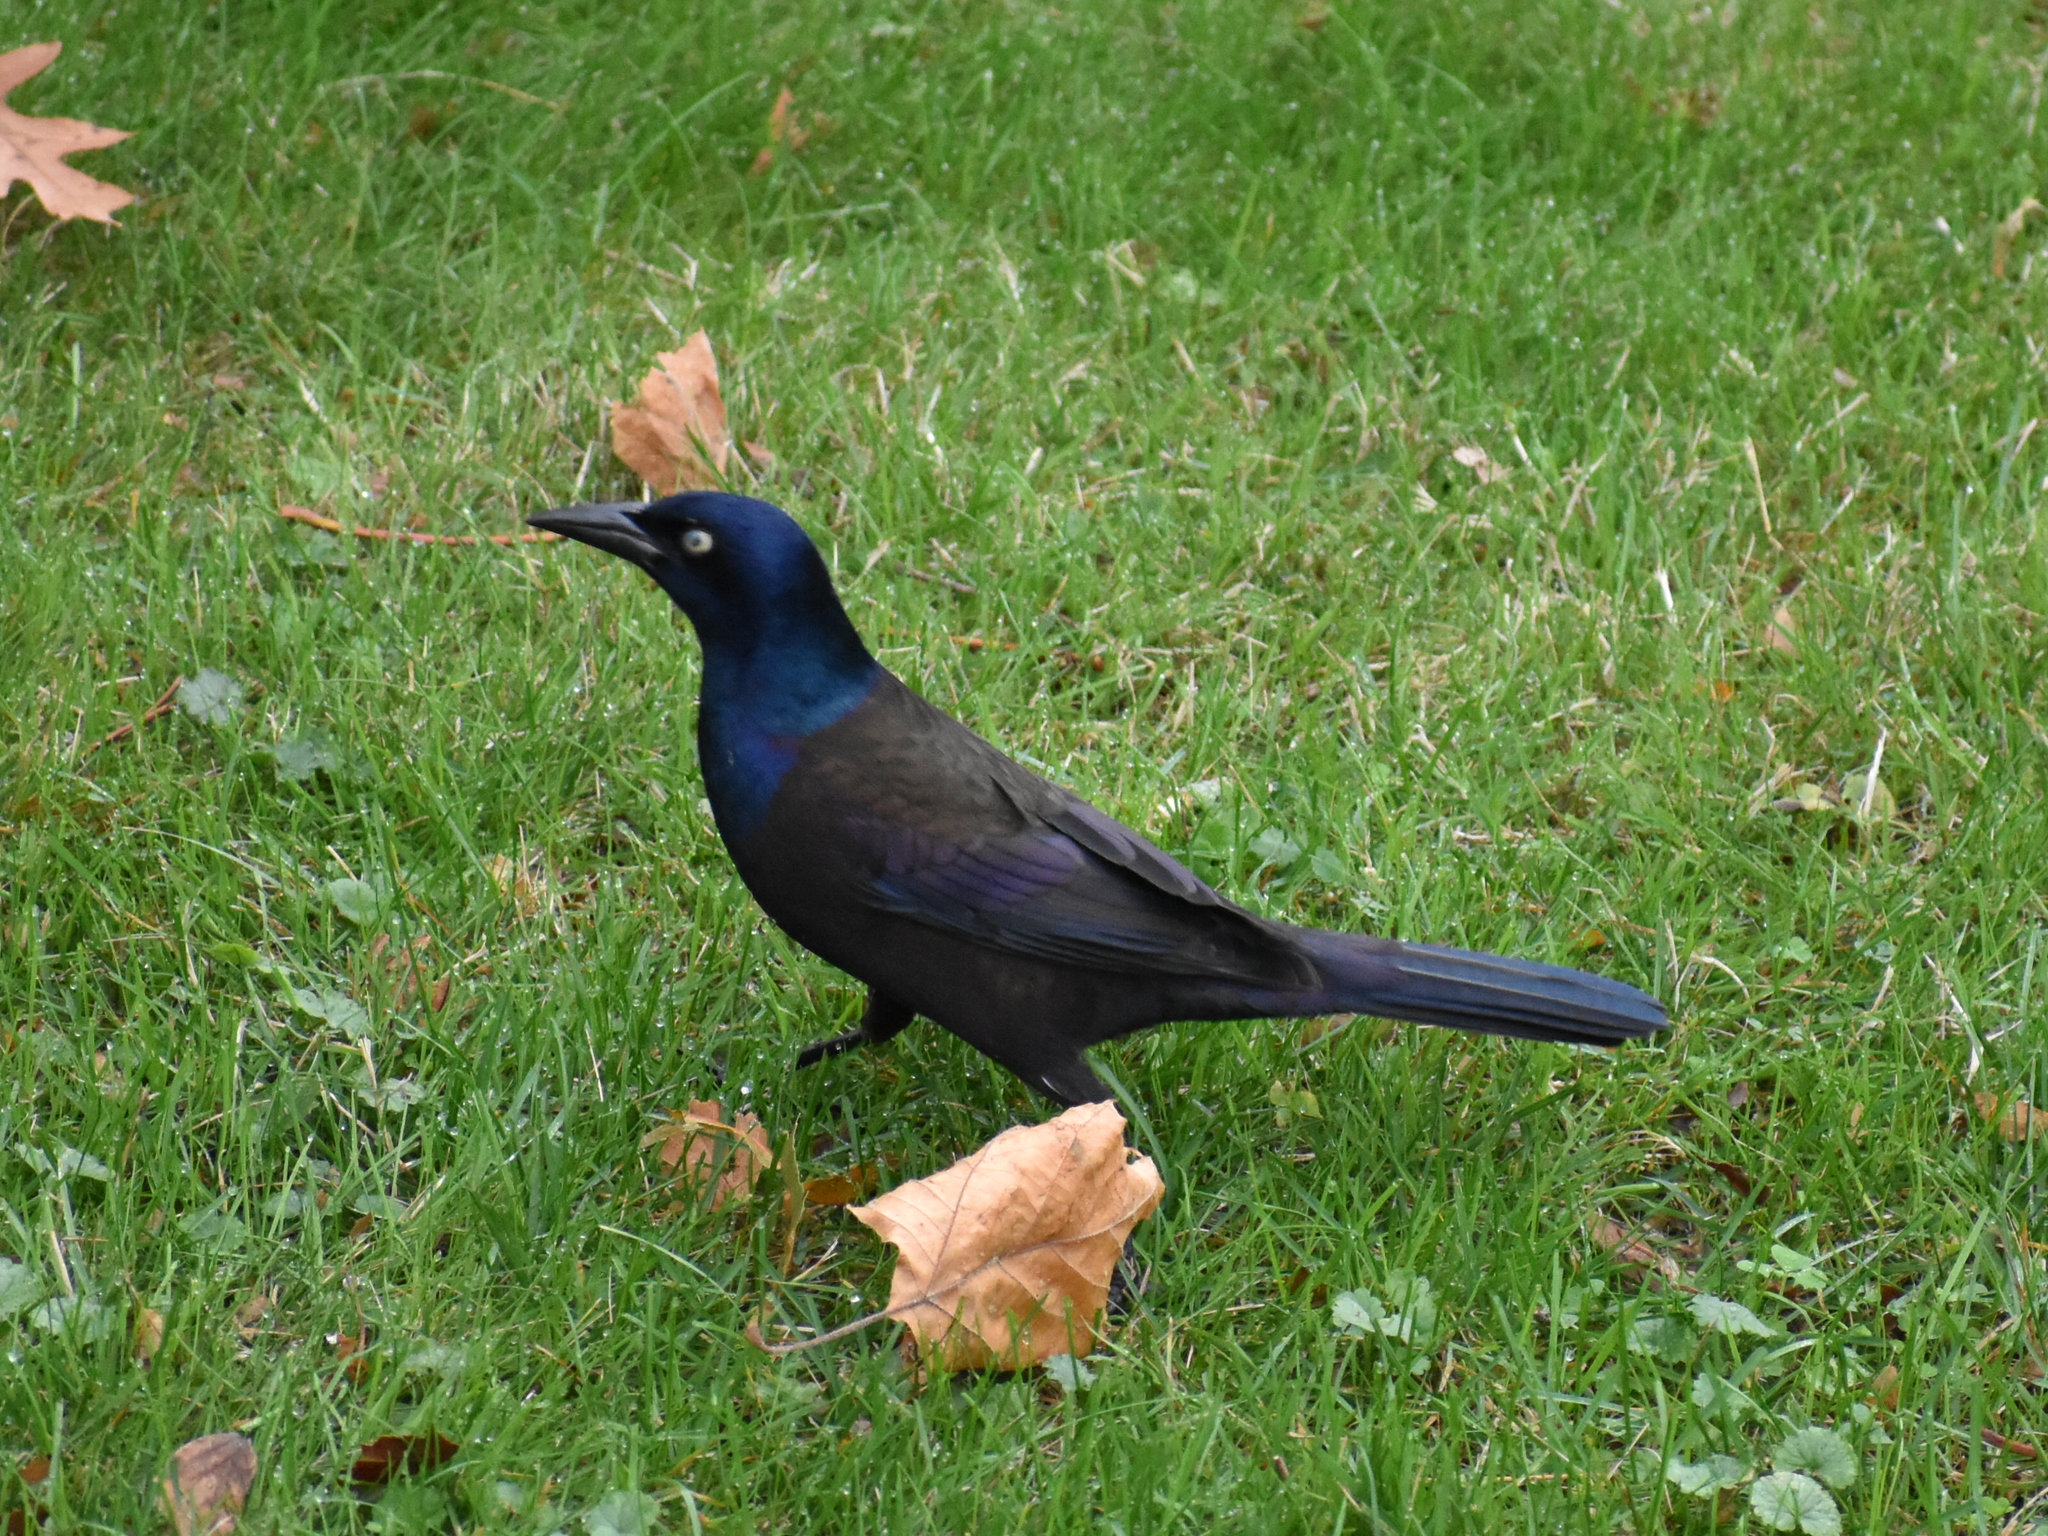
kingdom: Animalia
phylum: Chordata
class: Aves
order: Passeriformes
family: Icteridae
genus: Quiscalus
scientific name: Quiscalus quiscula
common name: Common grackle
